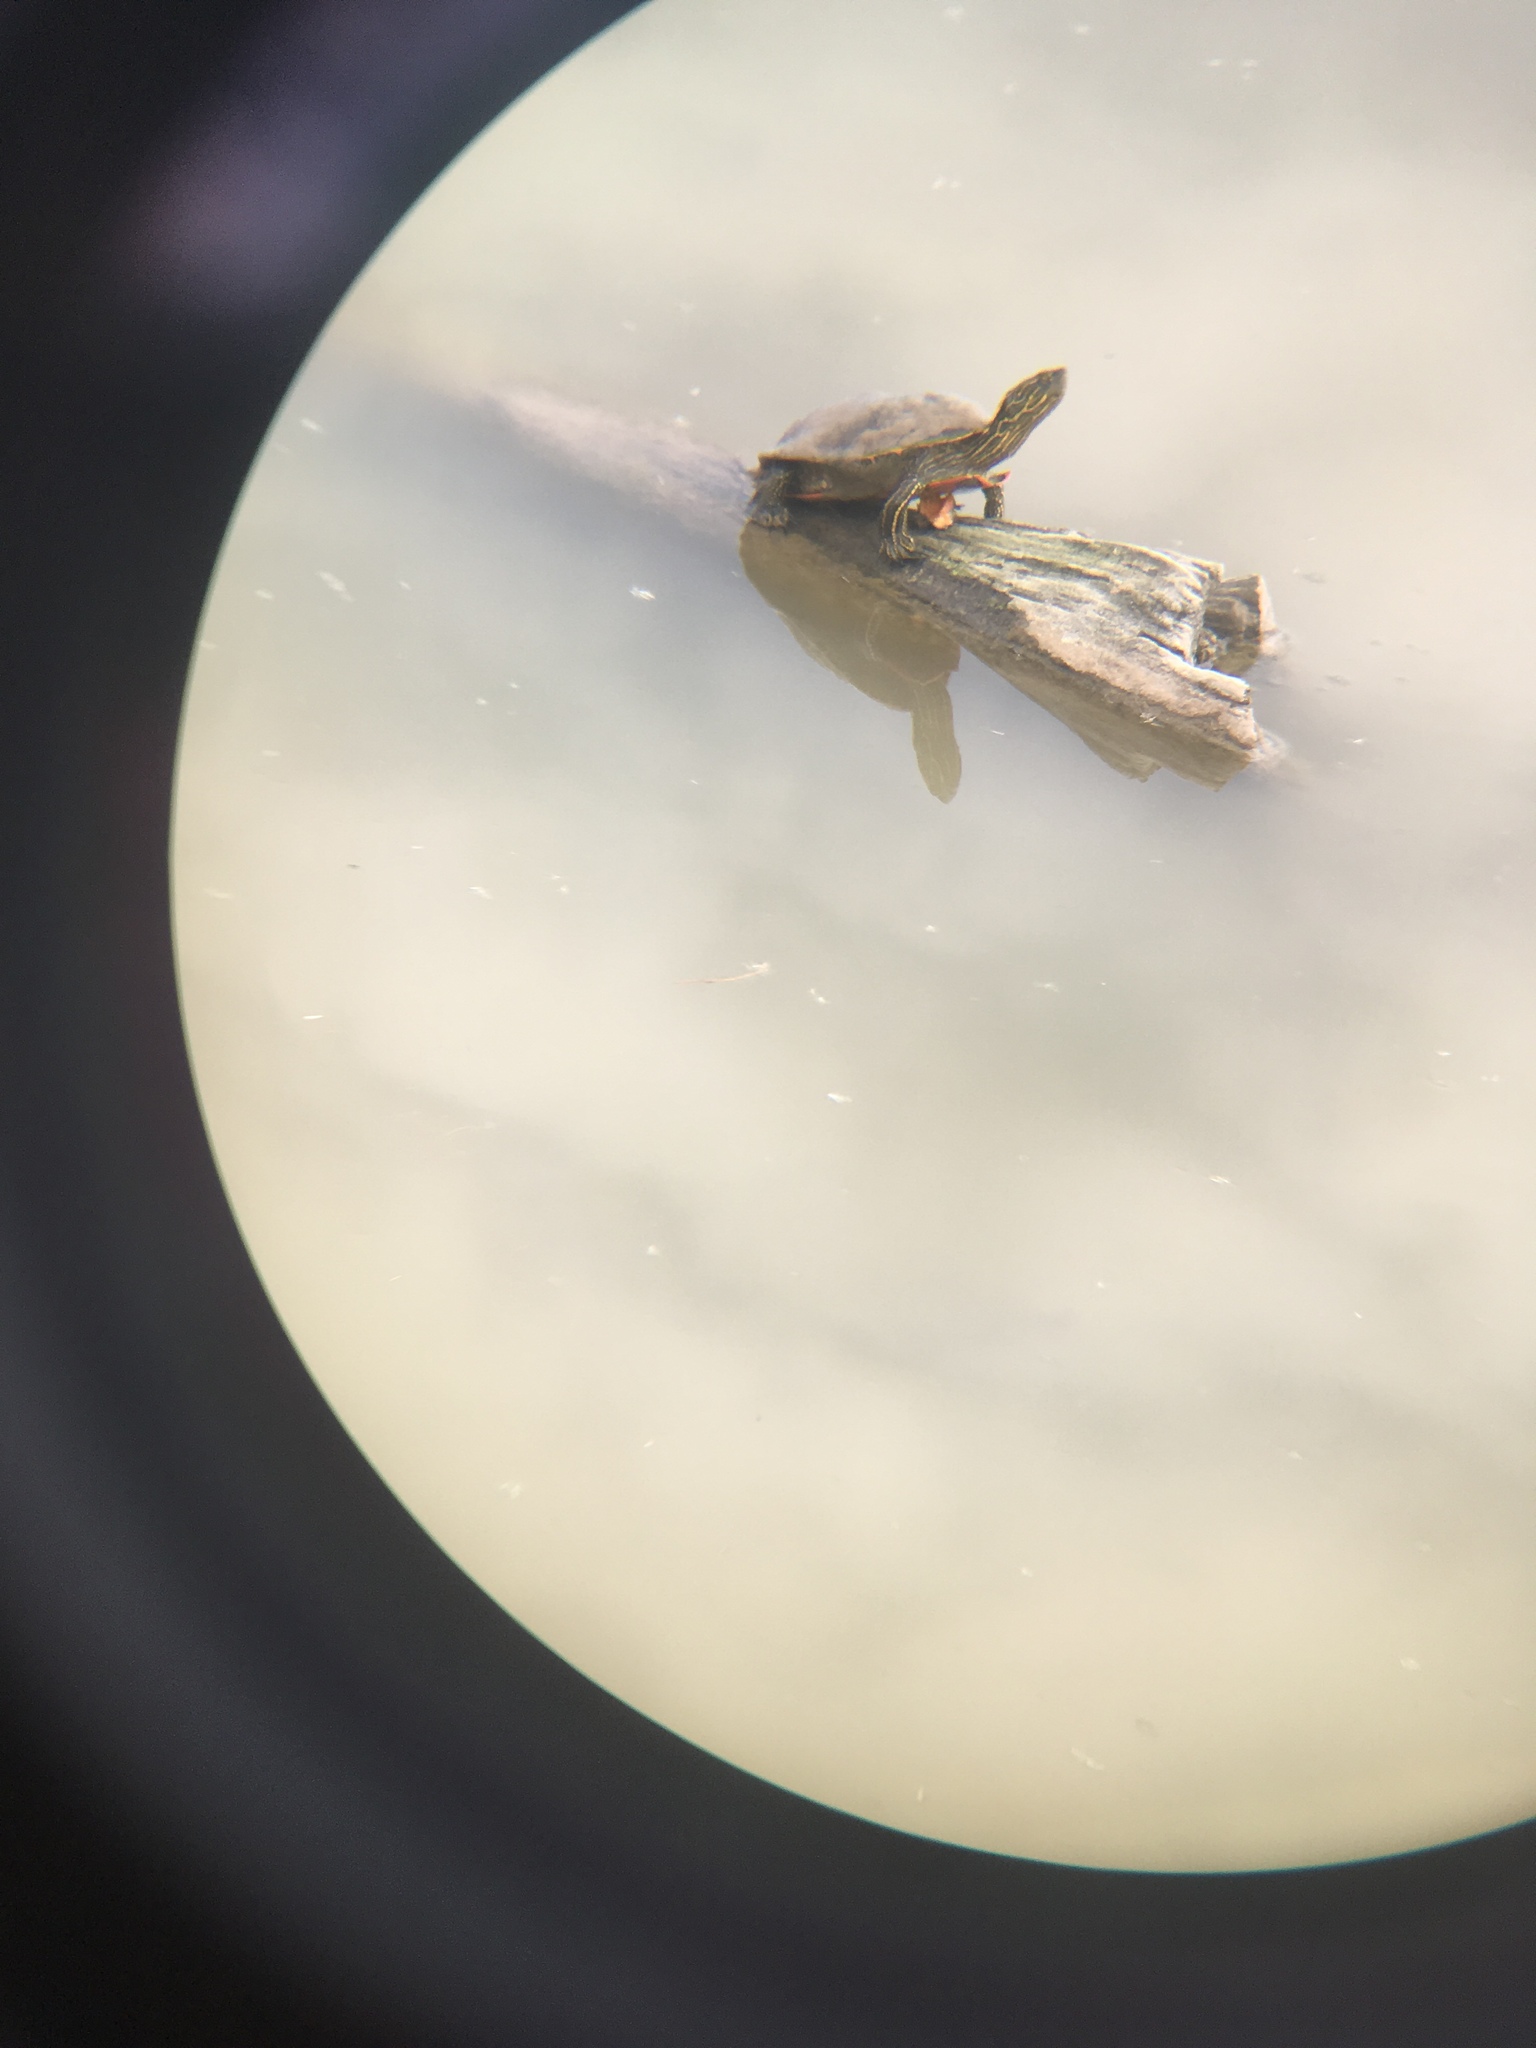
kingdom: Animalia
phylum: Chordata
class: Testudines
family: Emydidae
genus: Chrysemys
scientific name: Chrysemys picta
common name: Painted turtle
